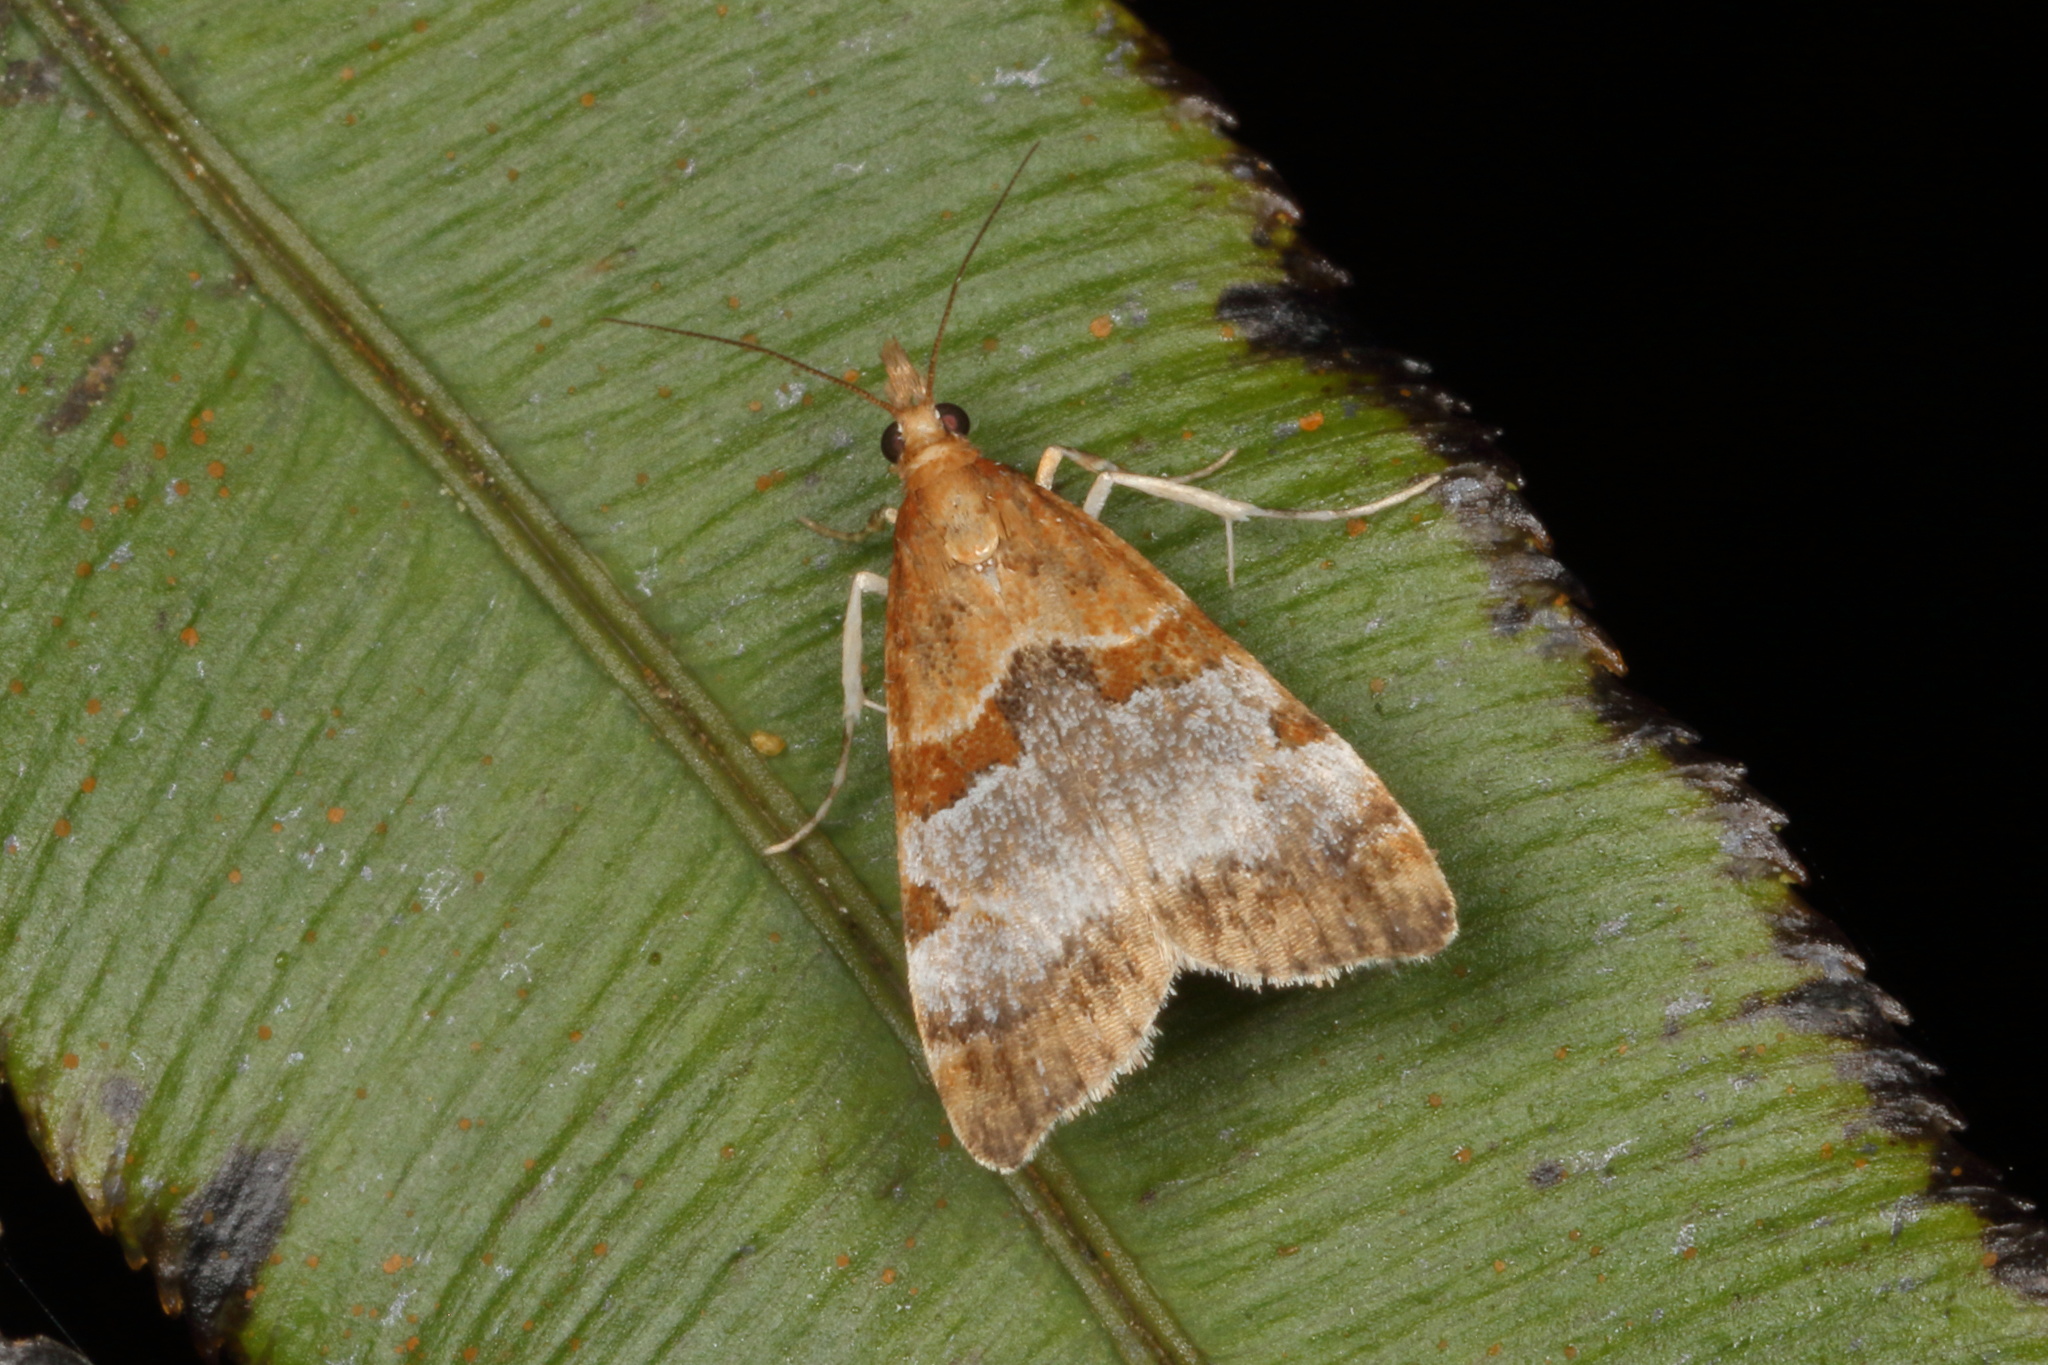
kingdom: Animalia
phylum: Arthropoda
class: Insecta
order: Lepidoptera
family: Crambidae
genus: Antiscopa
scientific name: Antiscopa epicomia
